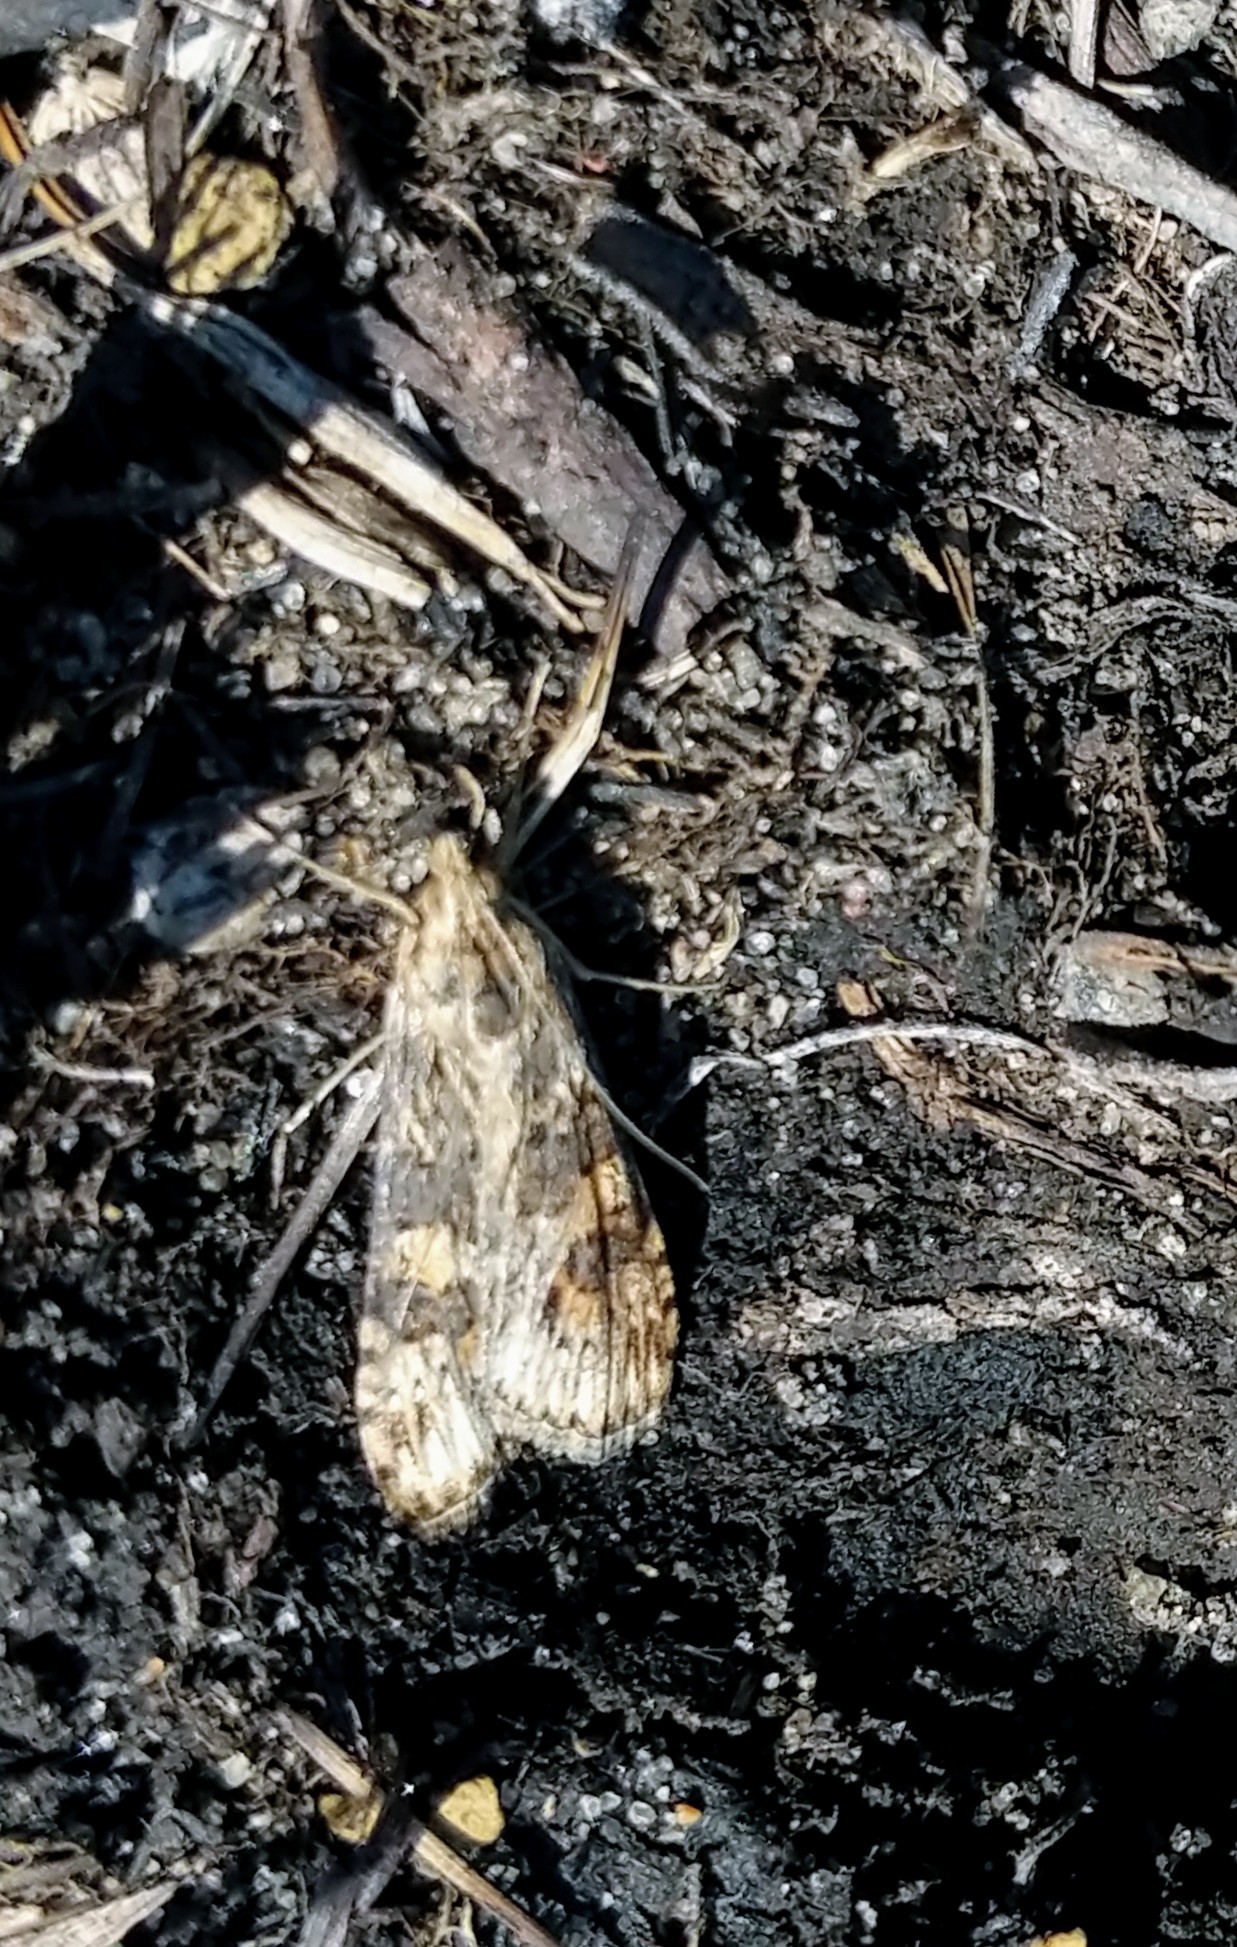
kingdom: Animalia
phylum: Arthropoda
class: Insecta
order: Lepidoptera
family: Crambidae
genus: Nomophila
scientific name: Nomophila nearctica
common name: American rush veneer
